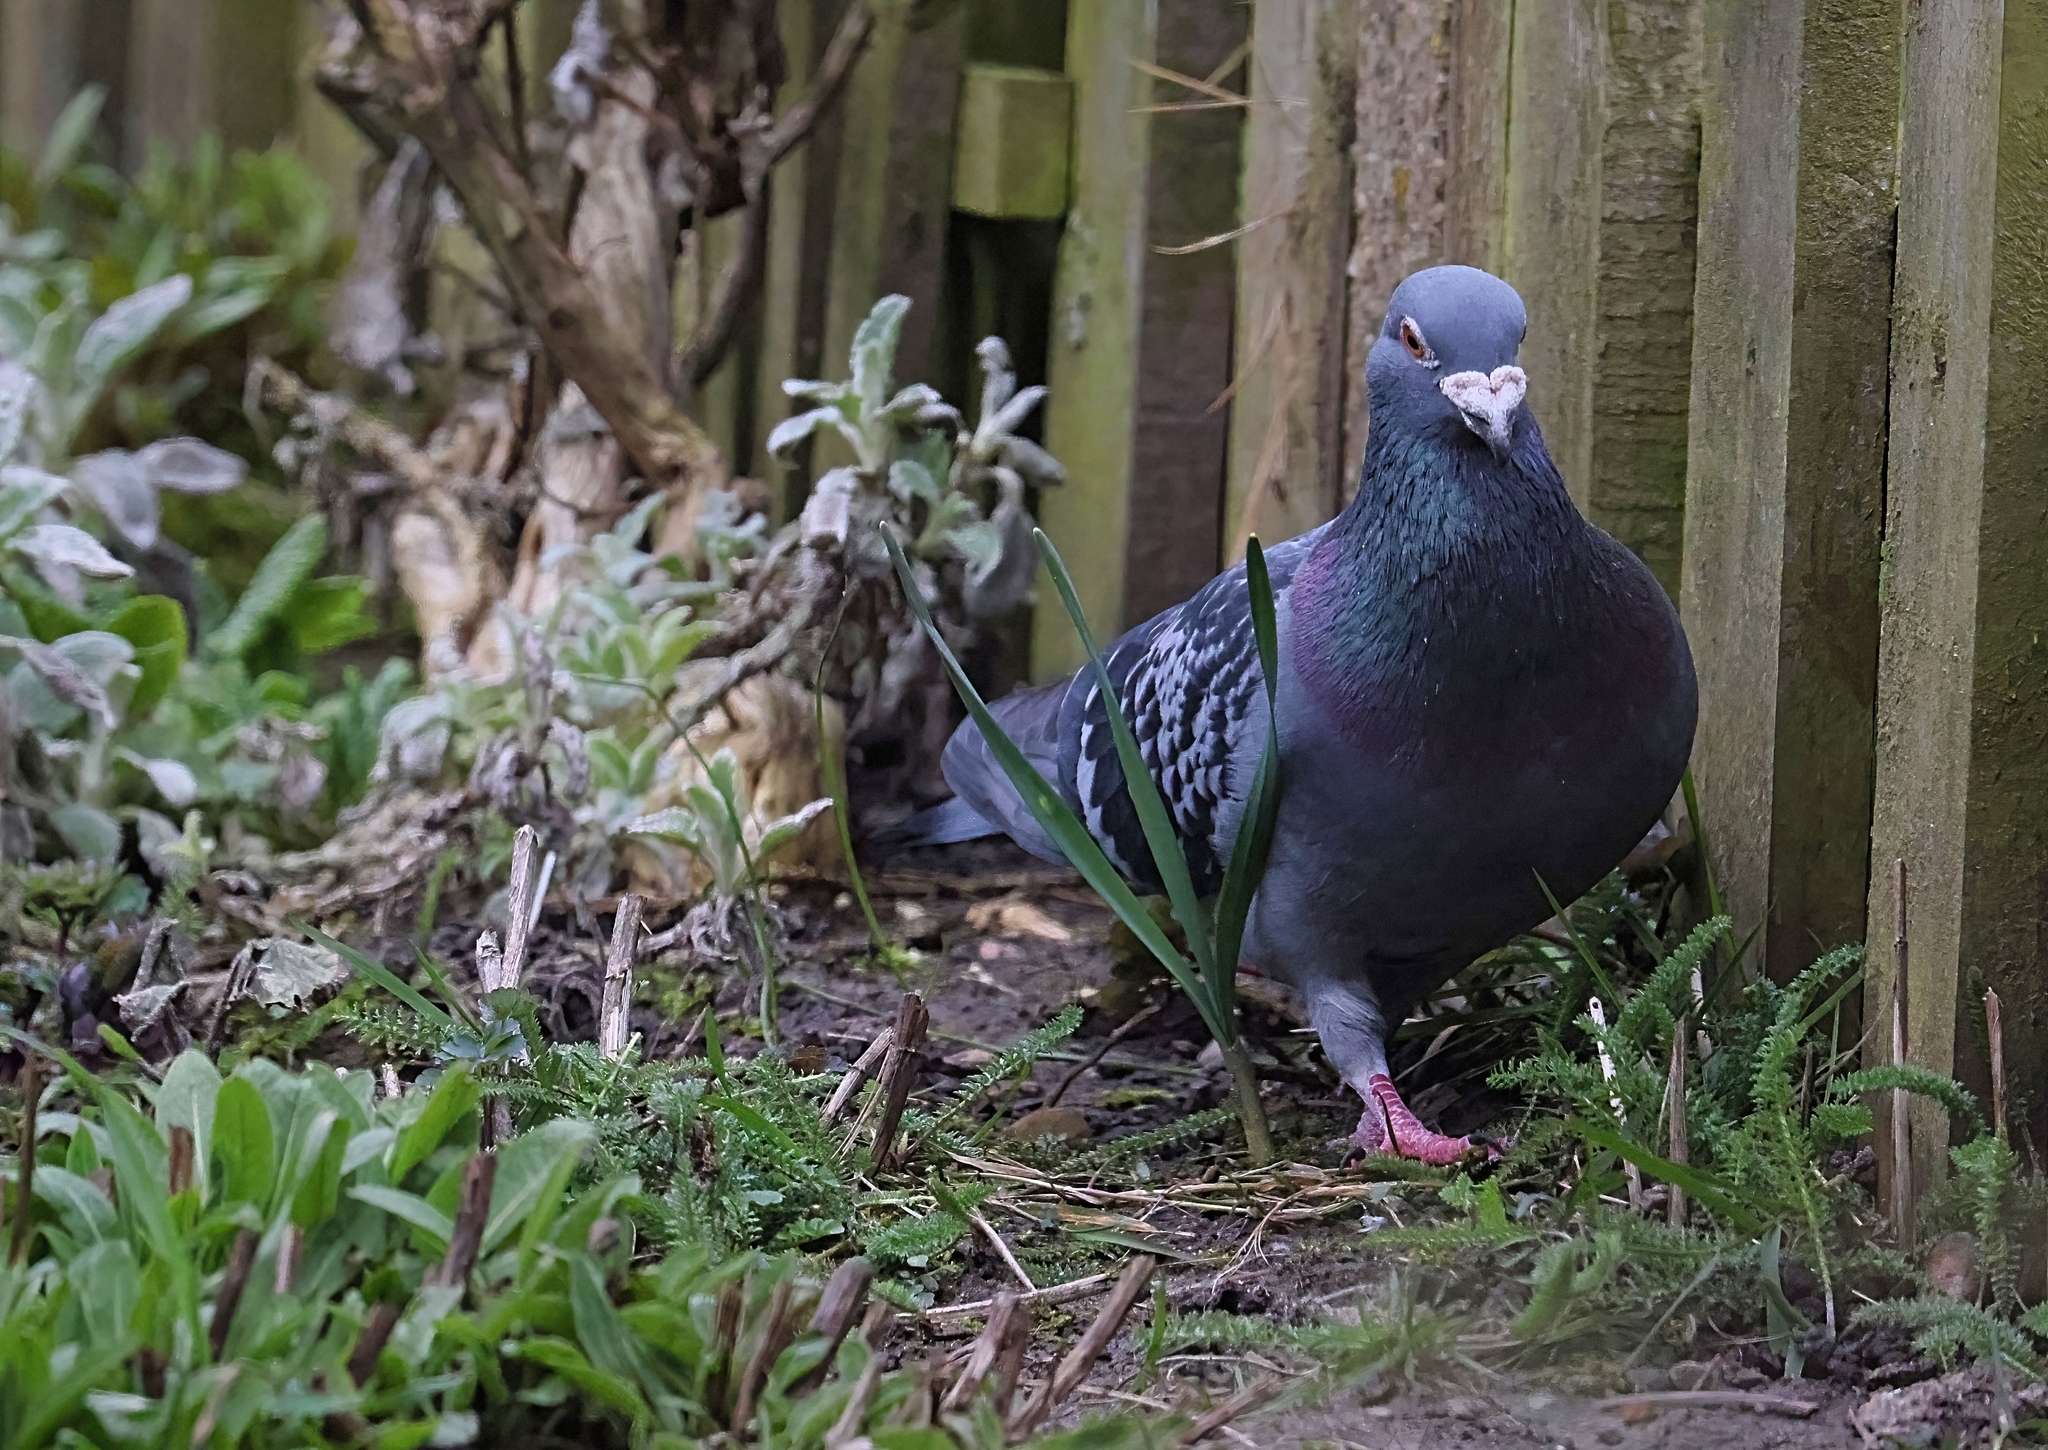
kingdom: Animalia
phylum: Chordata
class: Aves
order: Columbiformes
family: Columbidae
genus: Columba
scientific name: Columba livia
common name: Rock pigeon
